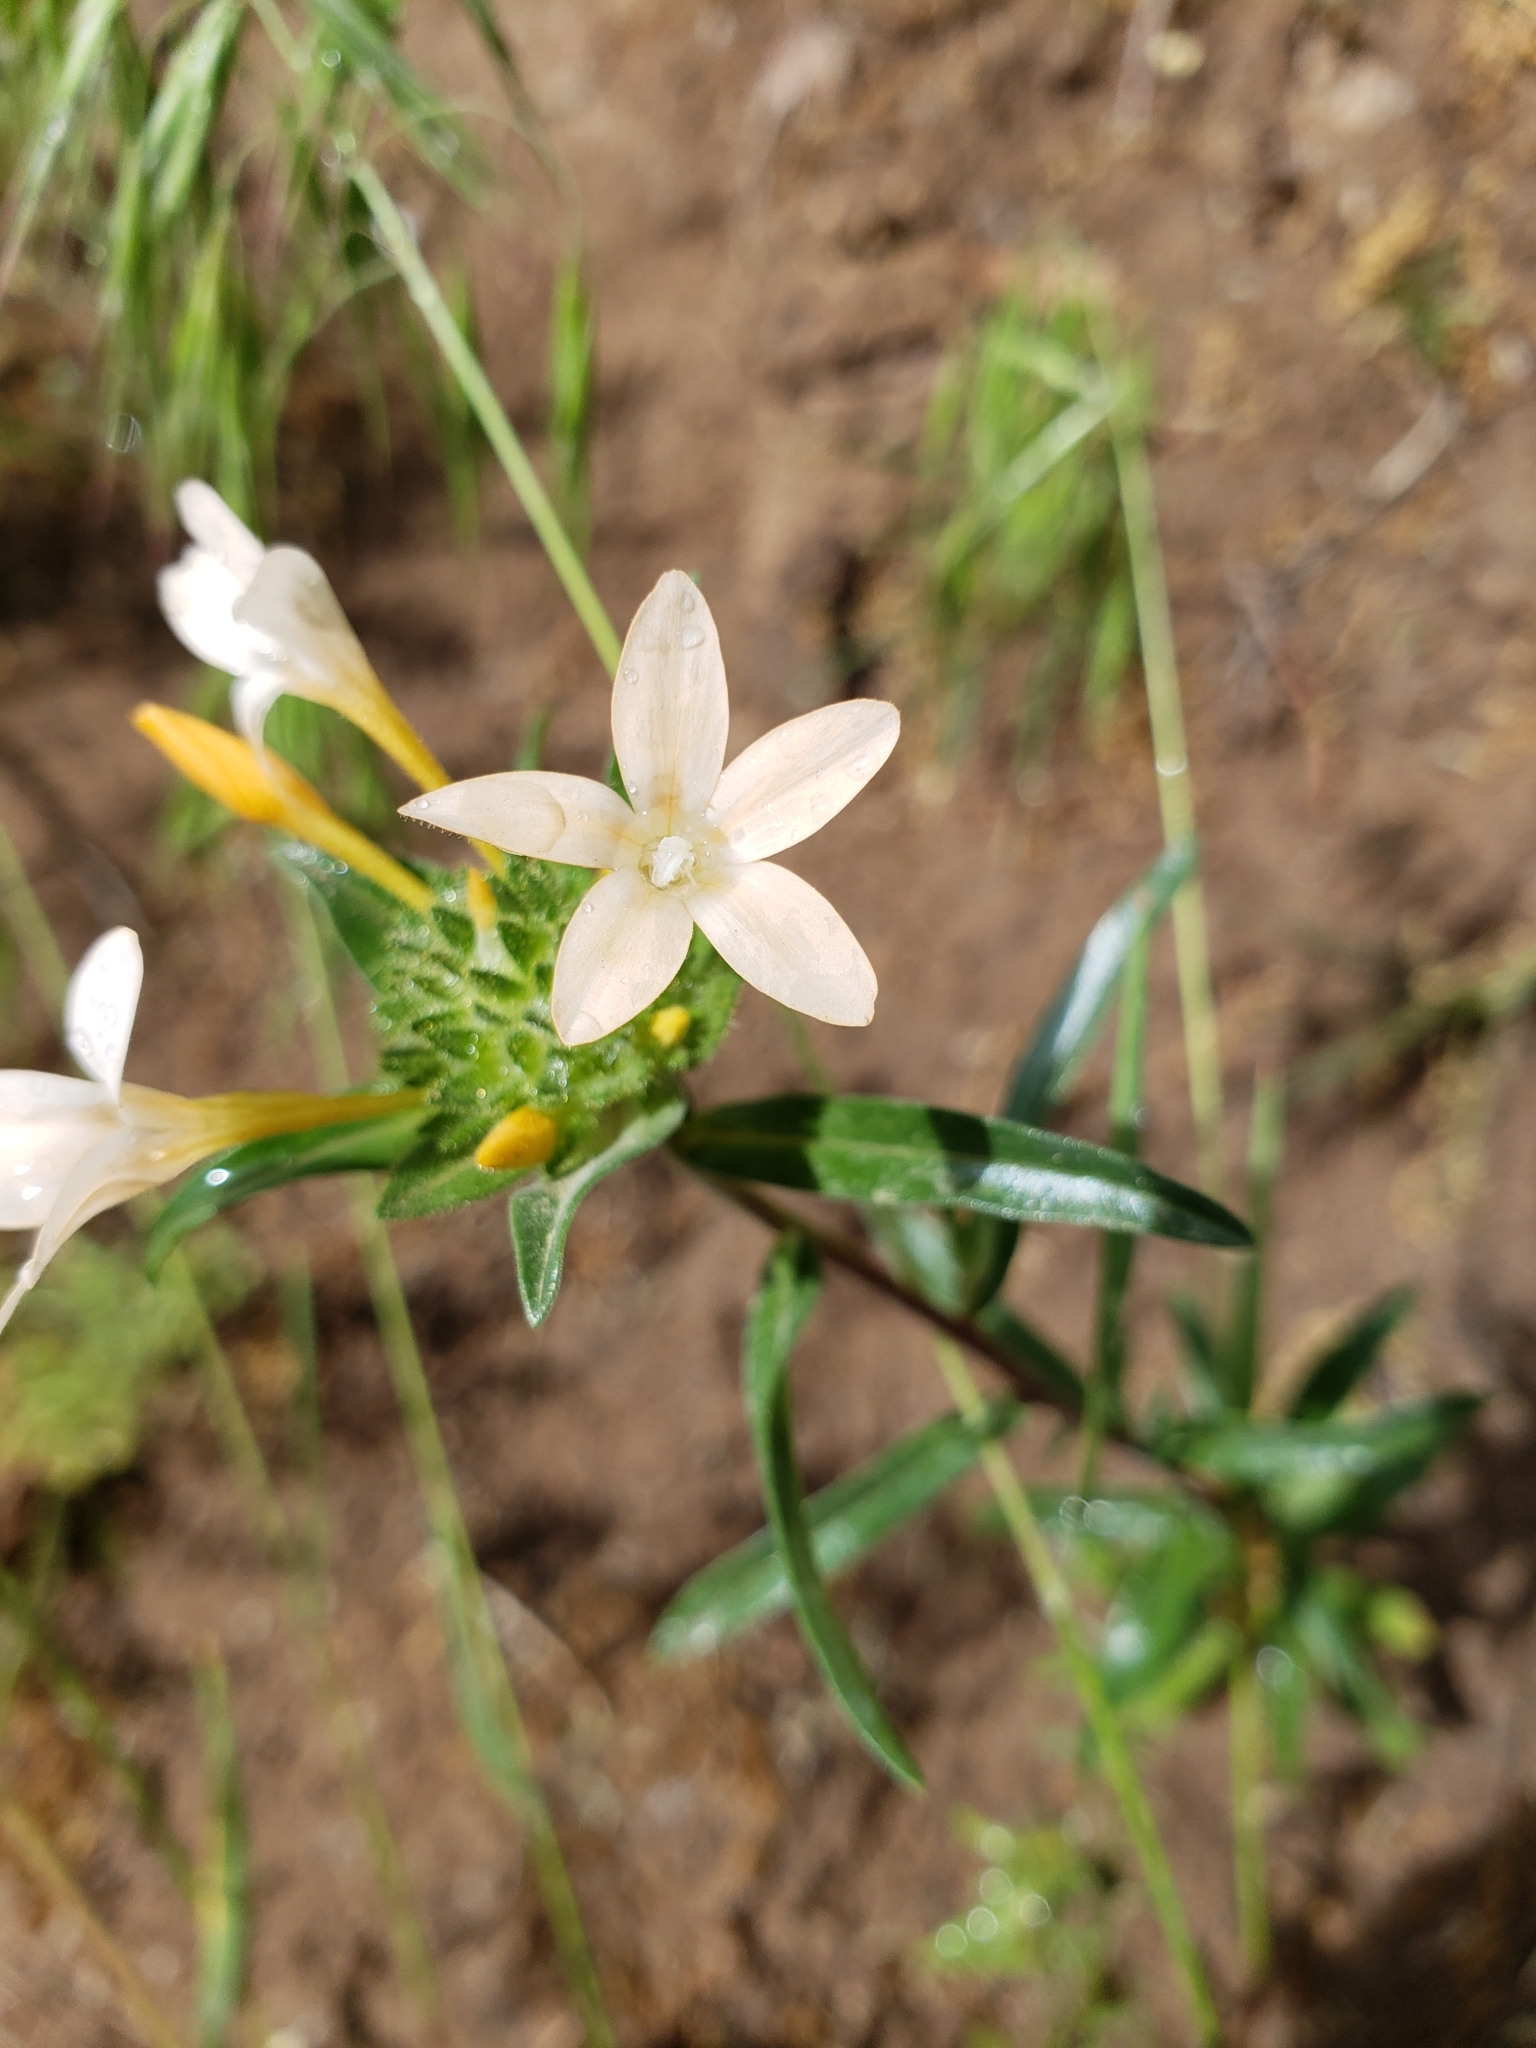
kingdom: Plantae
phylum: Tracheophyta
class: Magnoliopsida
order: Ericales
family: Polemoniaceae
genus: Collomia
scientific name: Collomia grandiflora
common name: California strawflower
